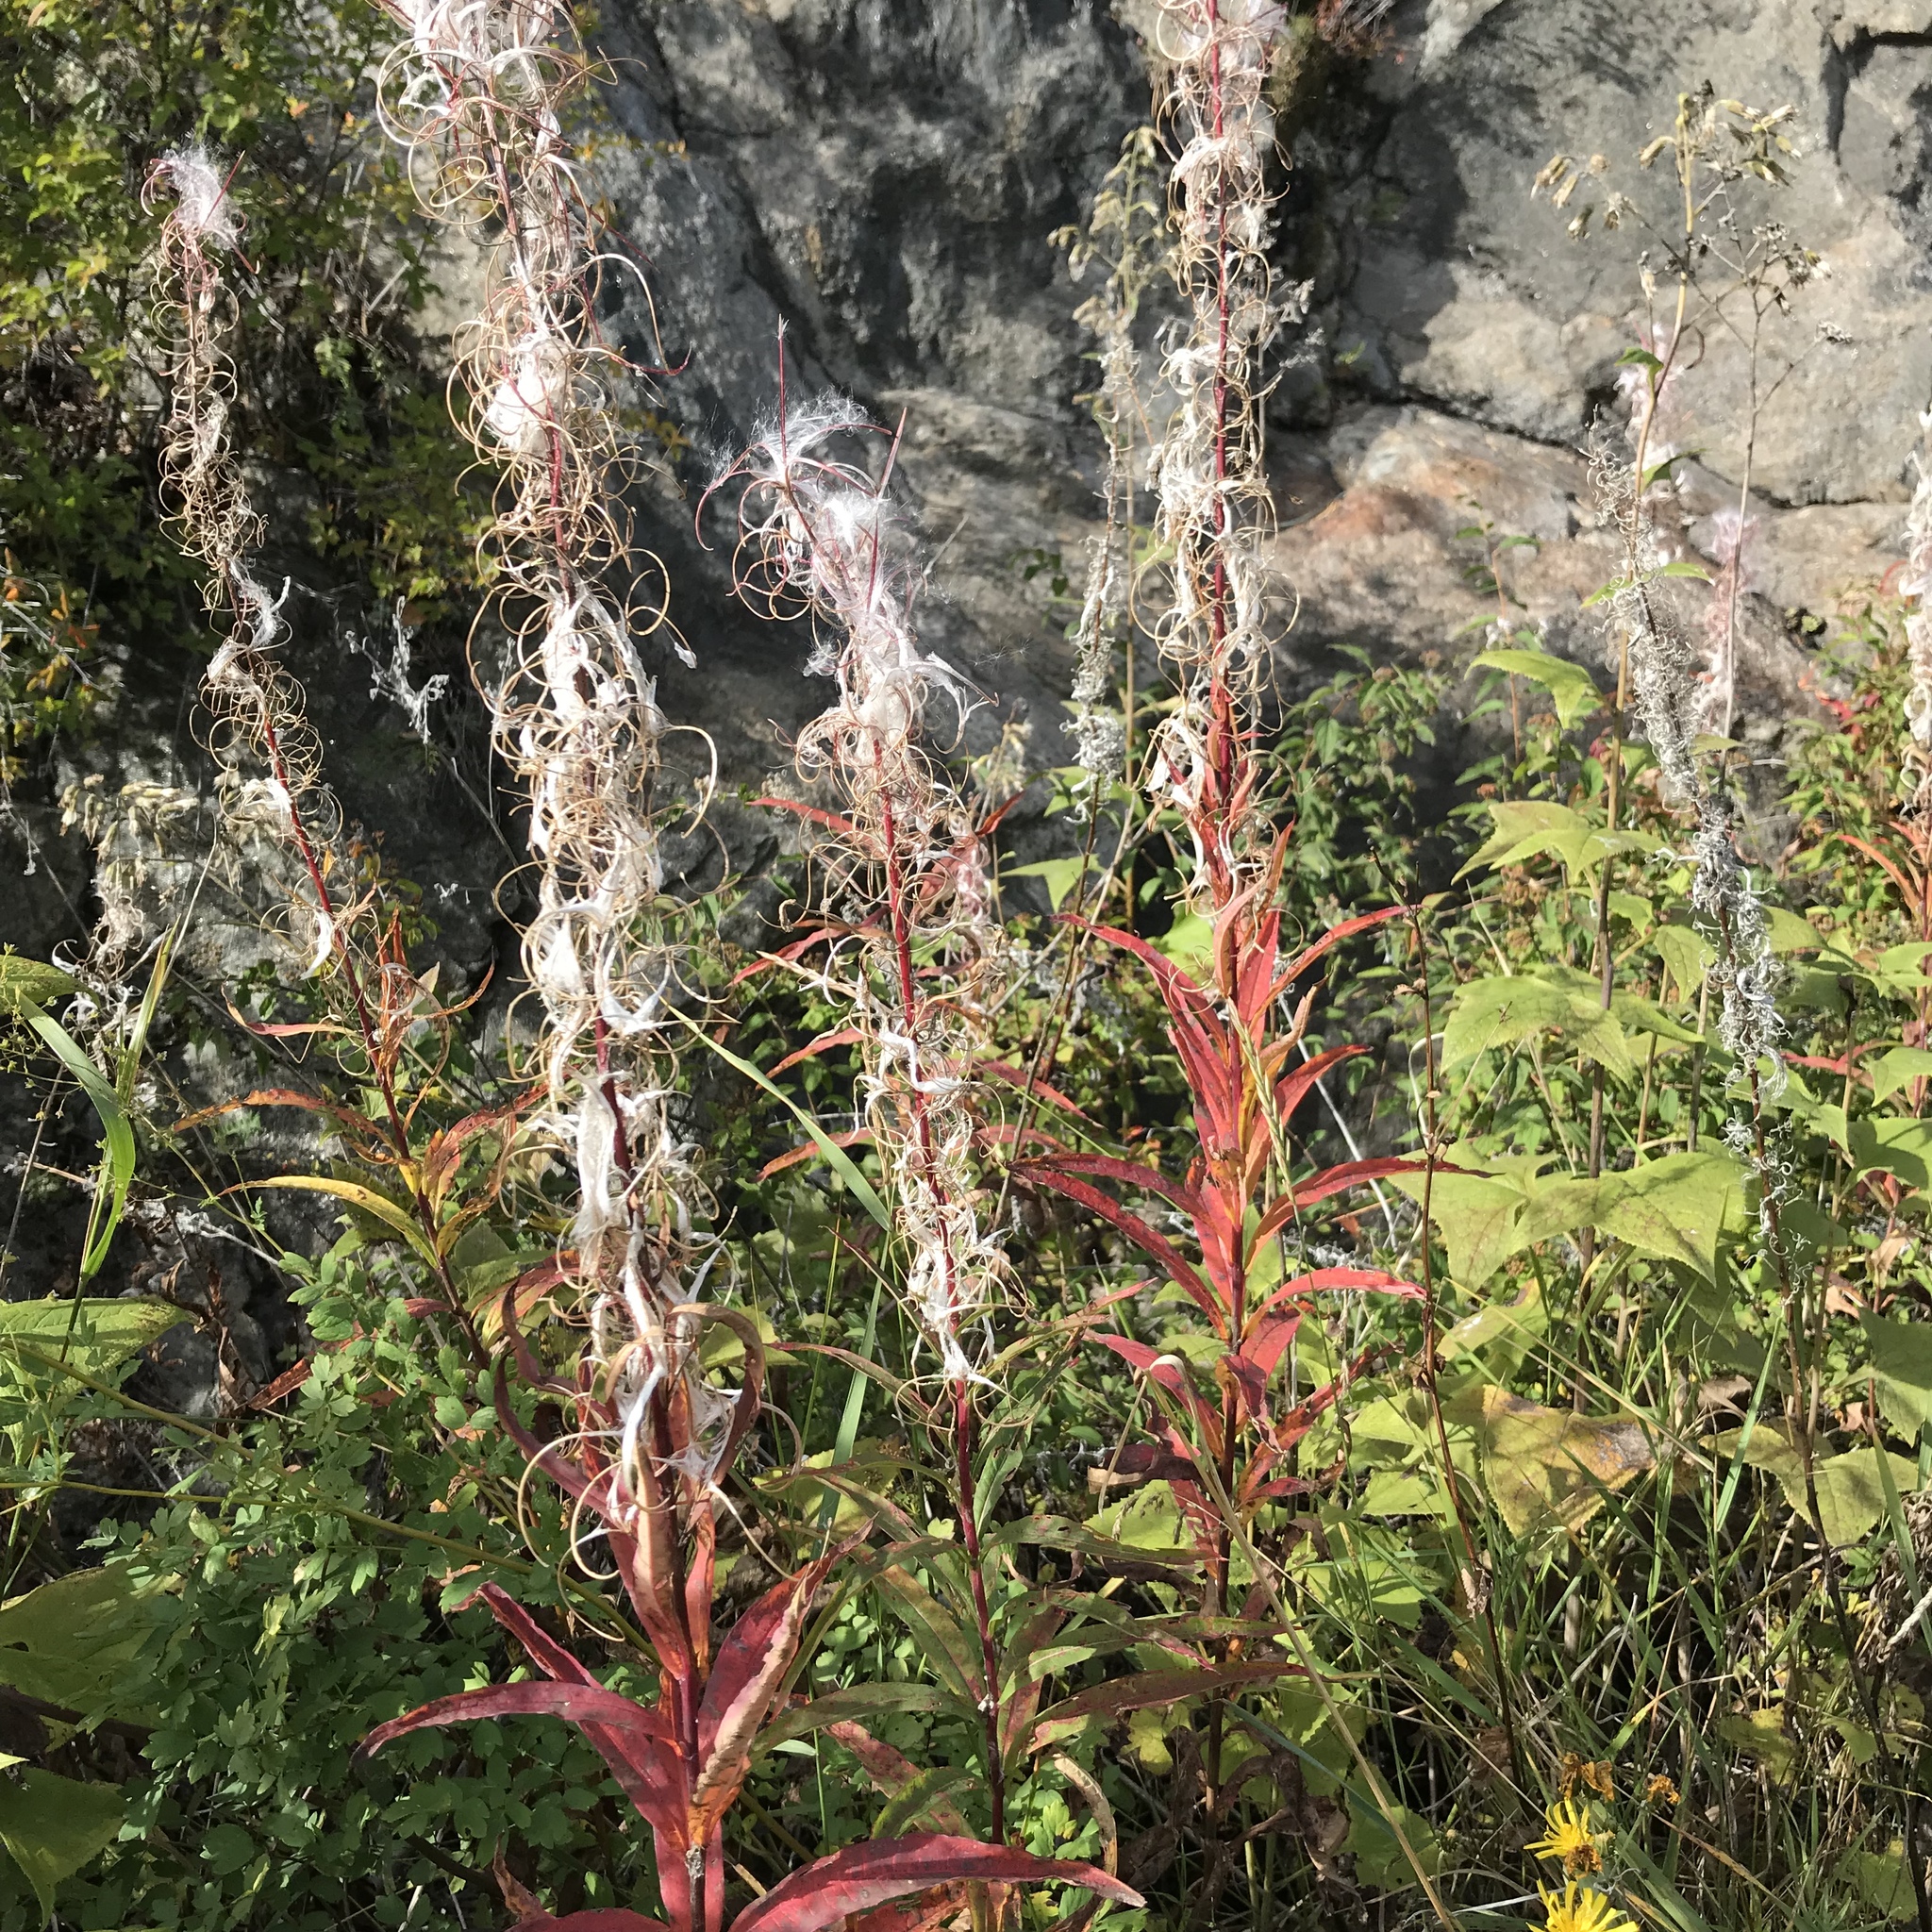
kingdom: Plantae
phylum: Tracheophyta
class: Magnoliopsida
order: Myrtales
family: Onagraceae
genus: Chamaenerion
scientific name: Chamaenerion angustifolium
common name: Fireweed
